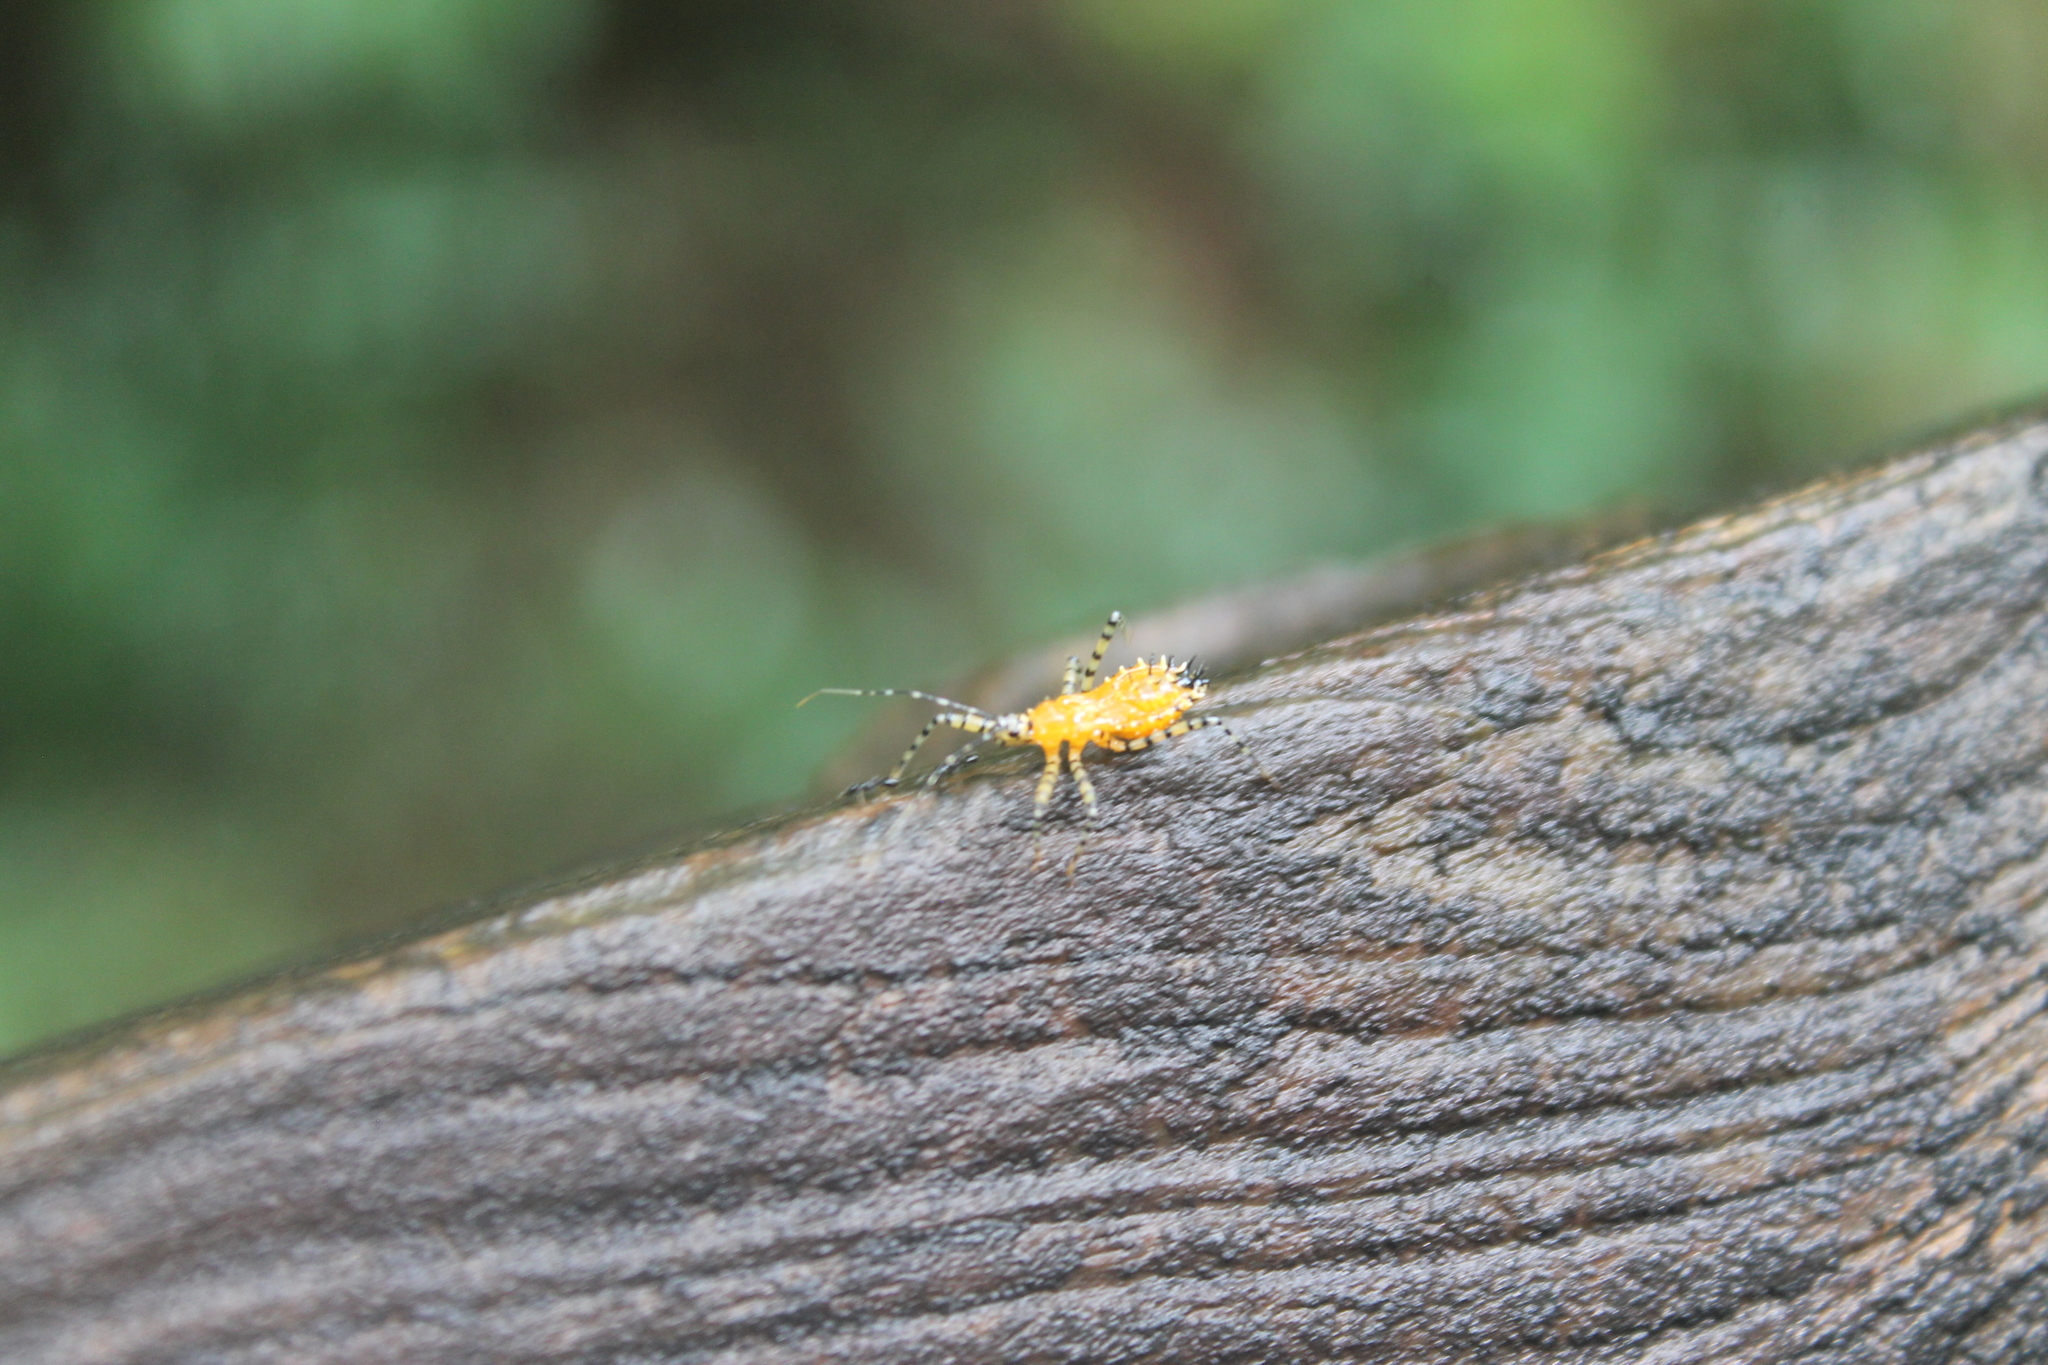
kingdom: Animalia
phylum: Arthropoda
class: Insecta
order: Hemiptera
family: Reduviidae
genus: Pselliopus
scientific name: Pselliopus barberi
